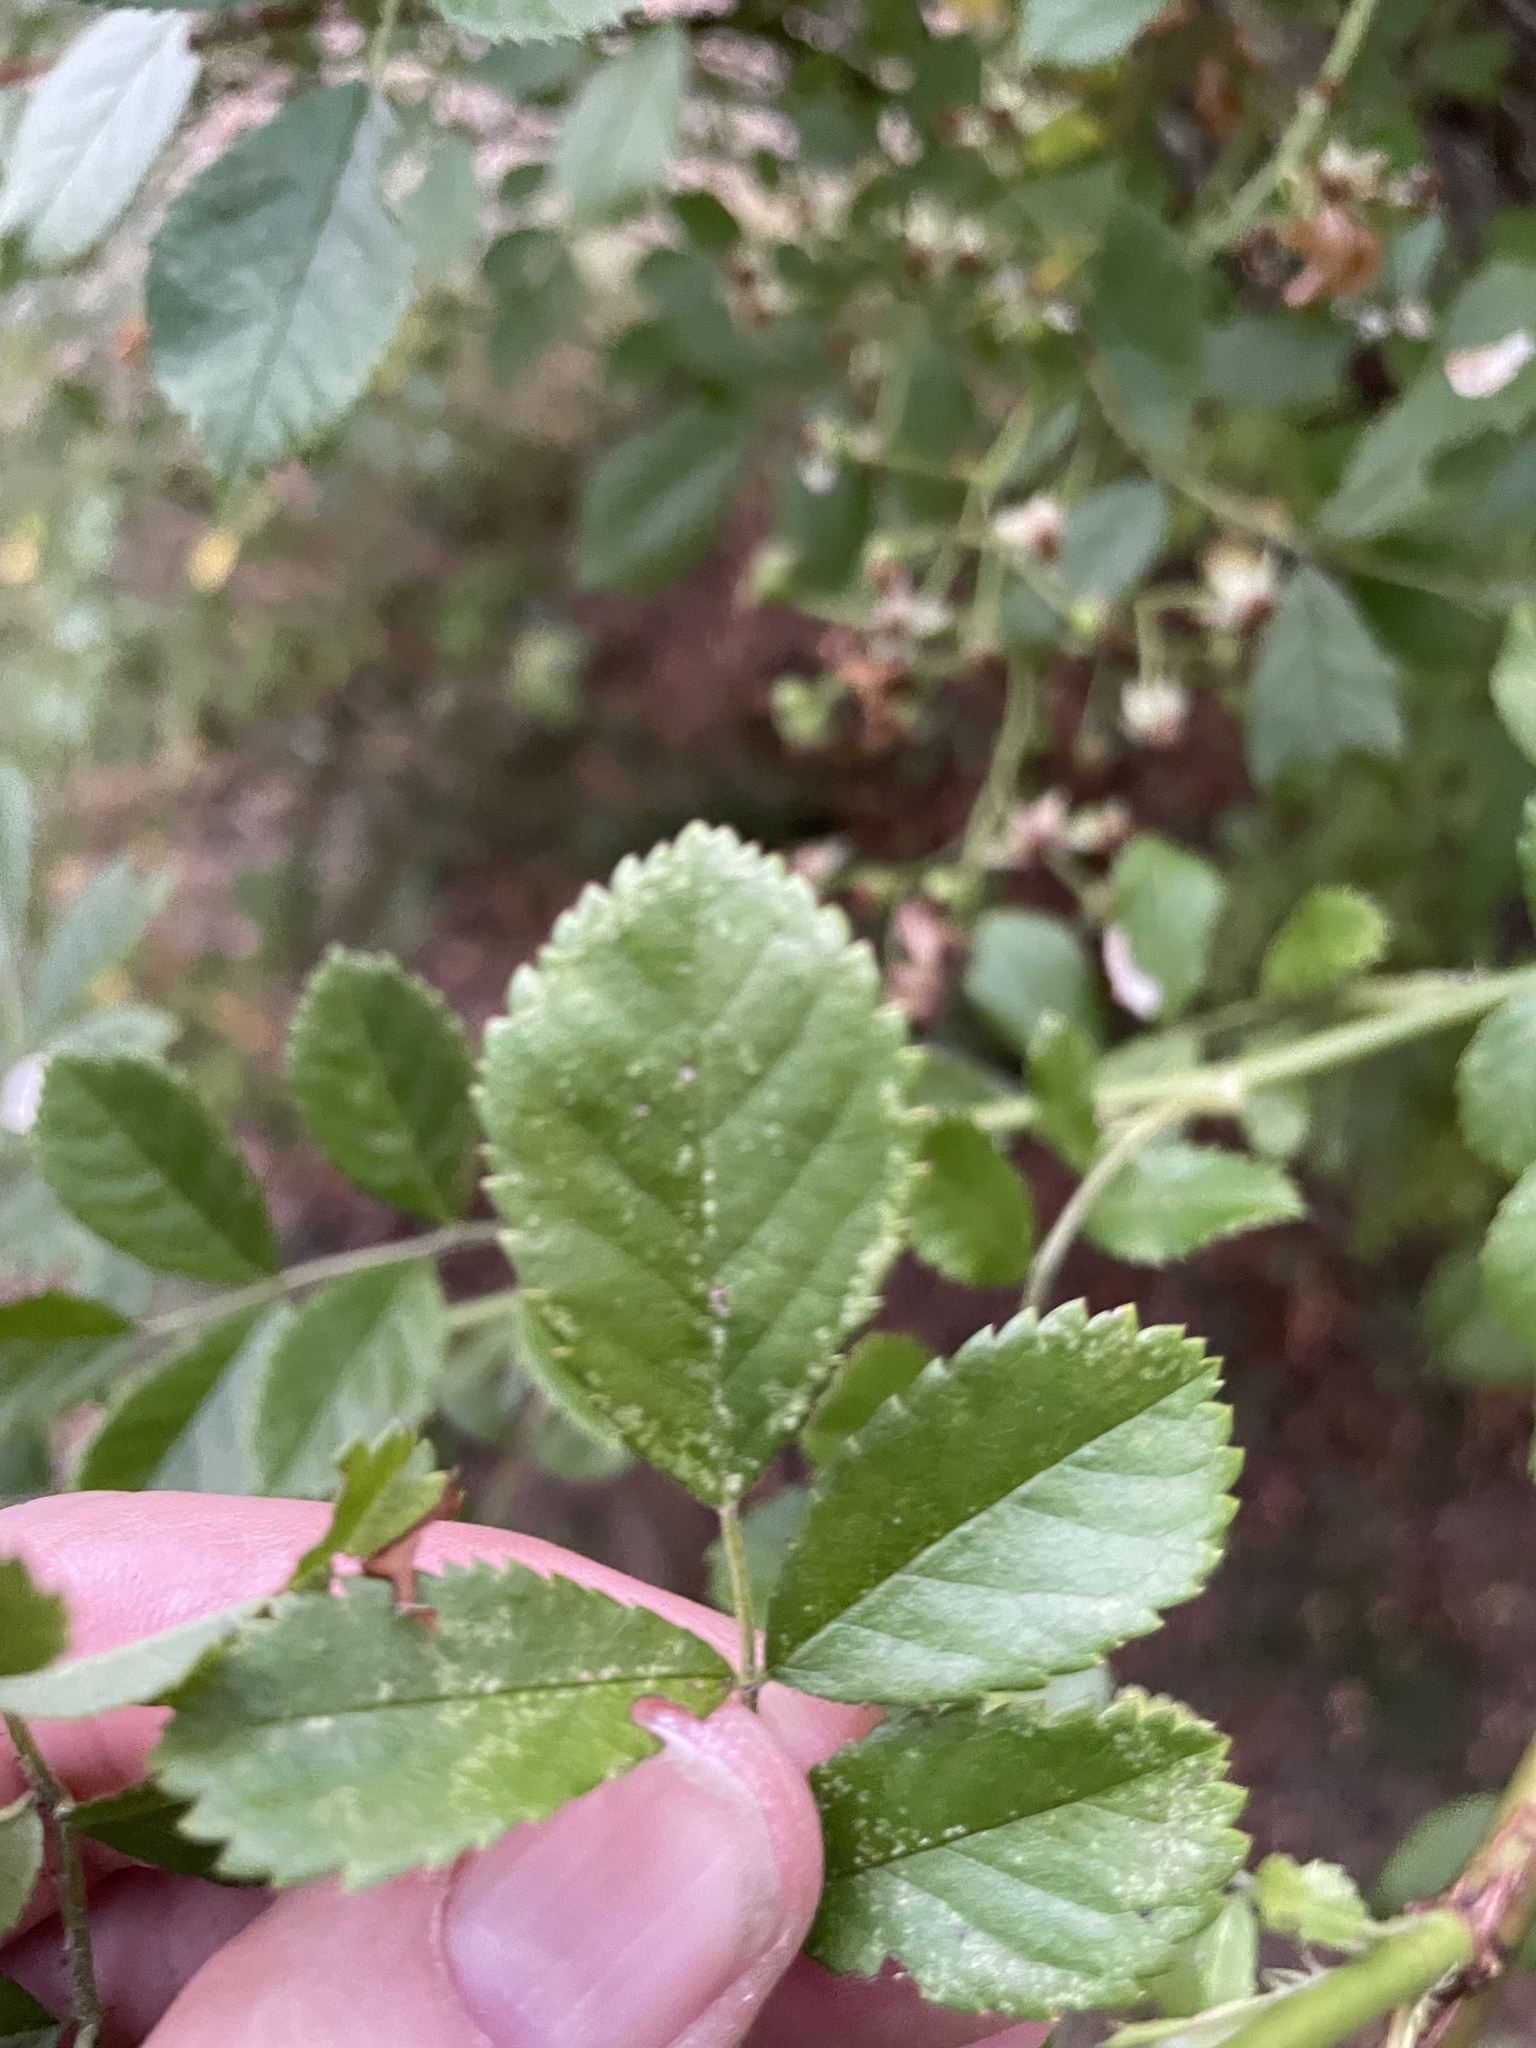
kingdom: Plantae
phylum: Tracheophyta
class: Magnoliopsida
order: Rosales
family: Rosaceae
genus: Rosa
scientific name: Rosa multiflora
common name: Multiflora rose
